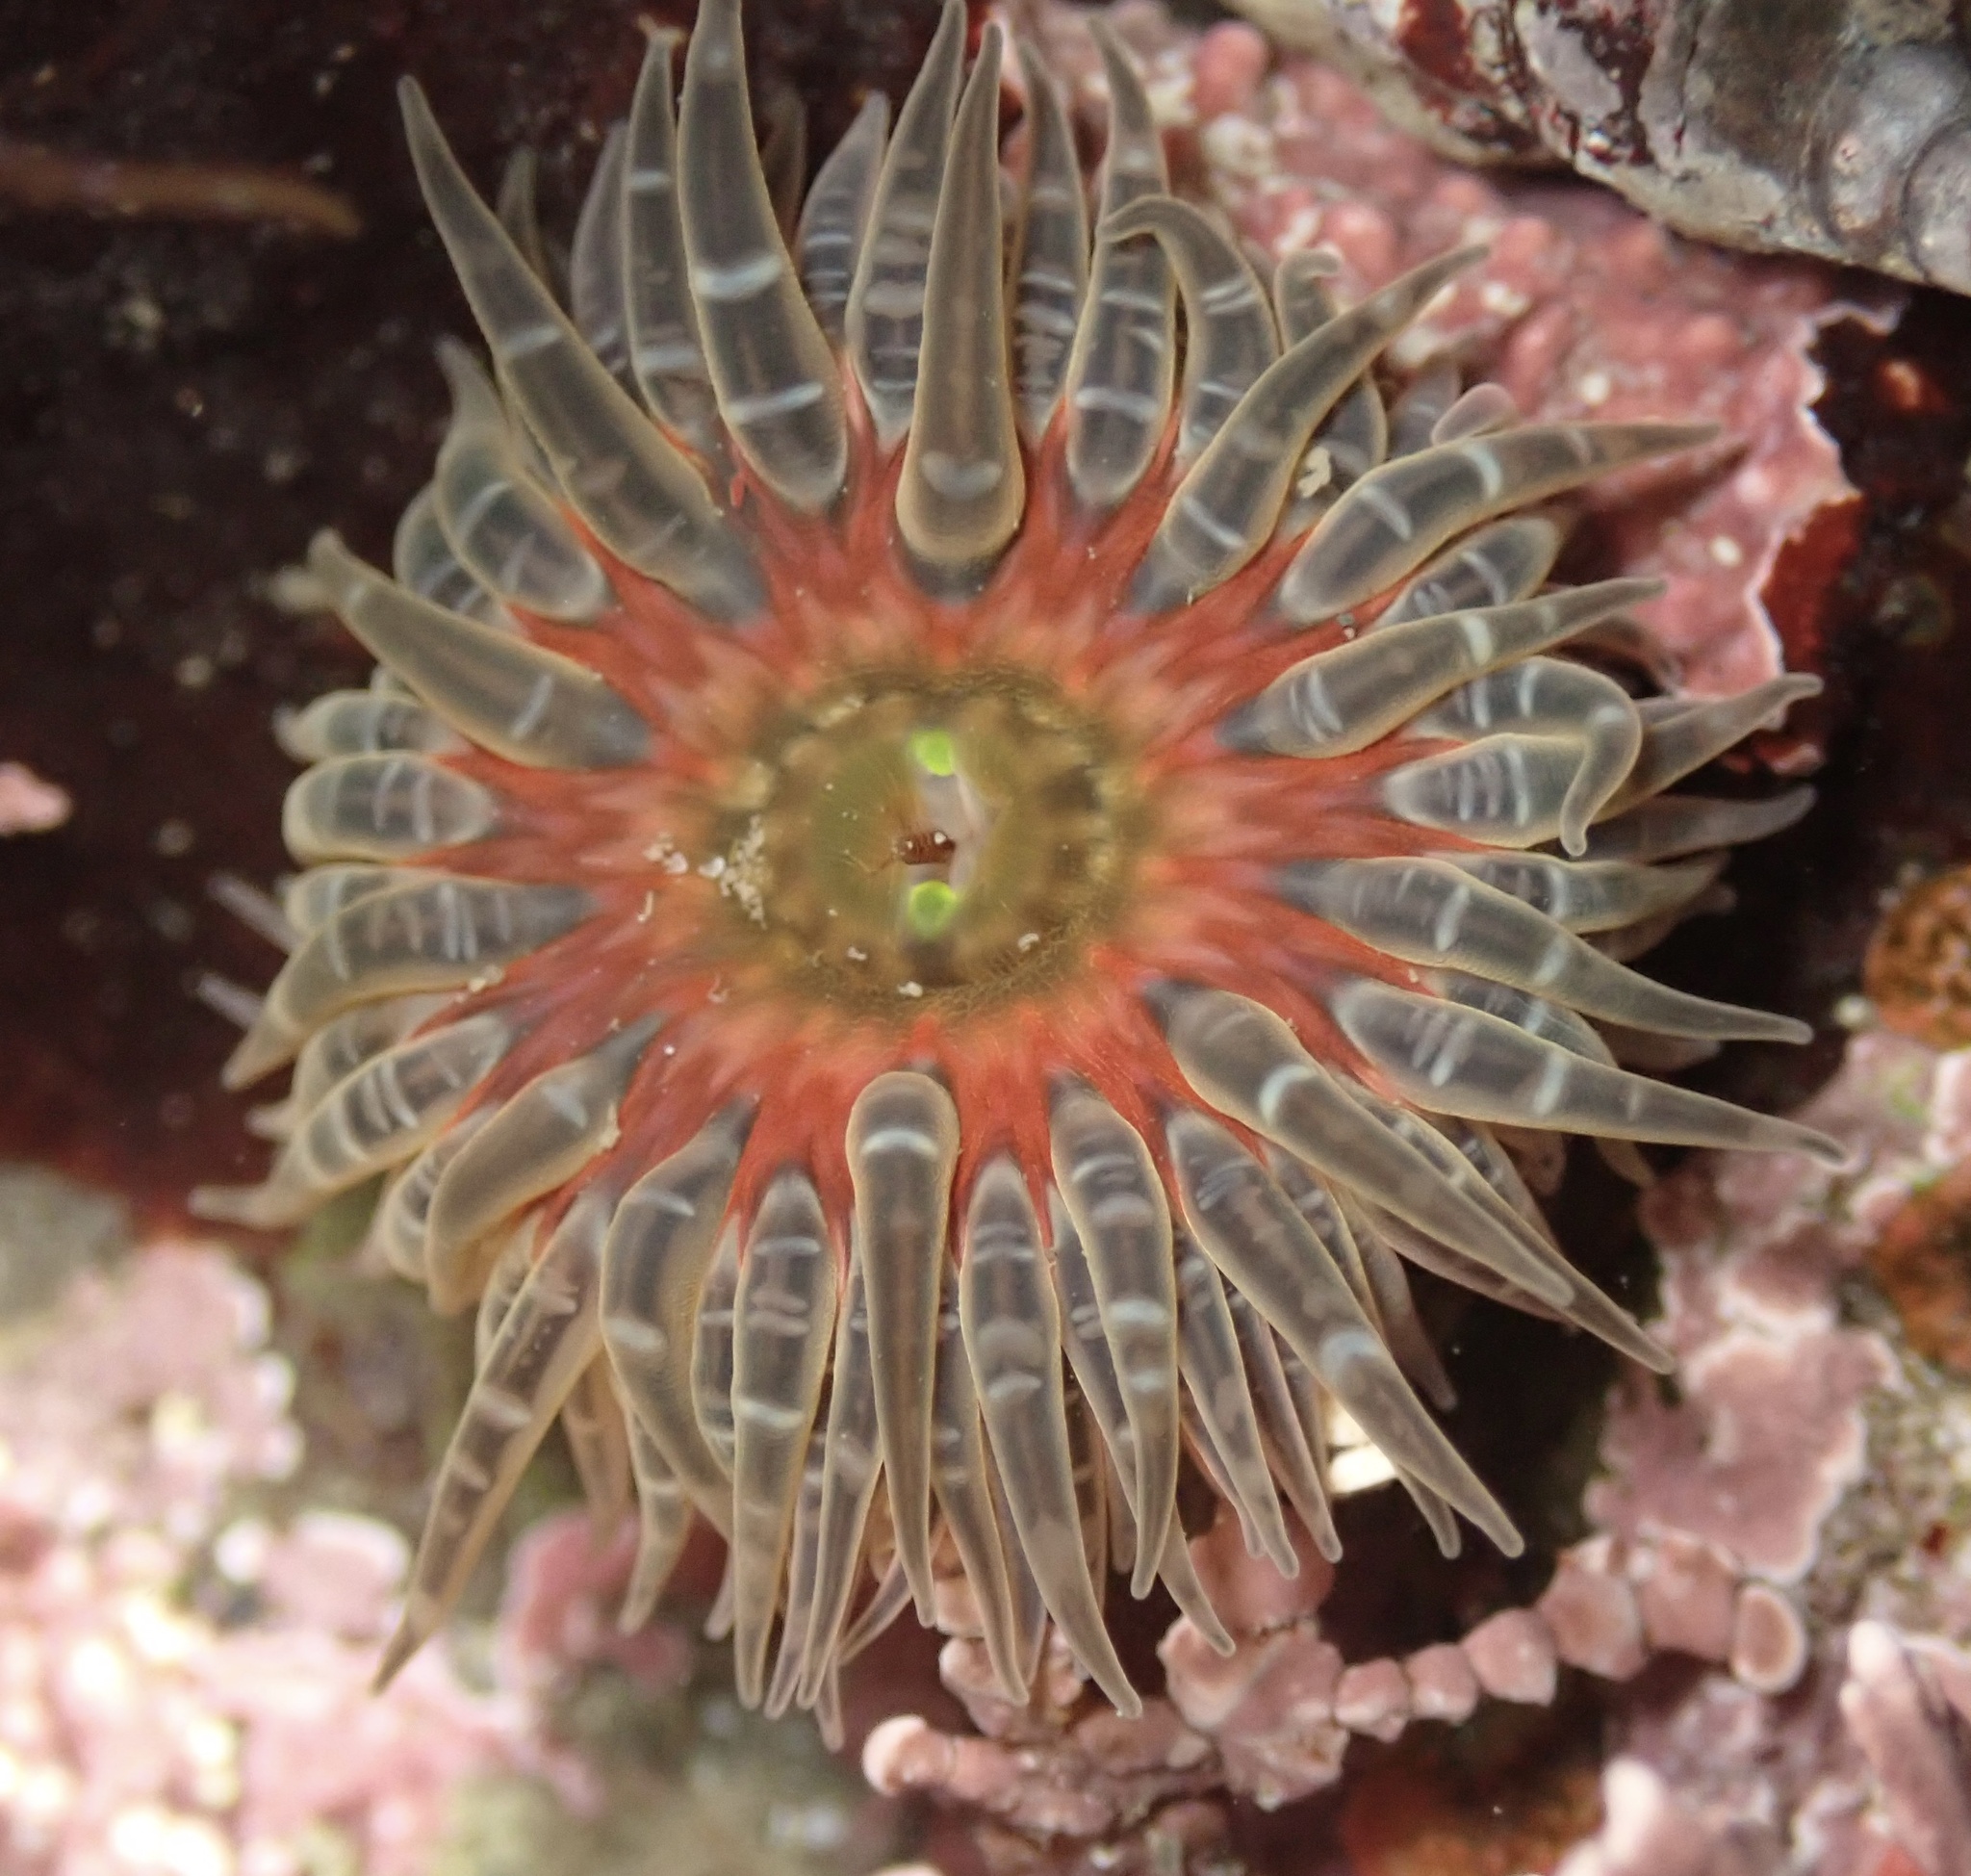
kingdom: Animalia
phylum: Cnidaria
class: Anthozoa
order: Actiniaria
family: Actiniidae
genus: Anthopleura
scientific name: Anthopleura artemisia
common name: Buried sea anemone
